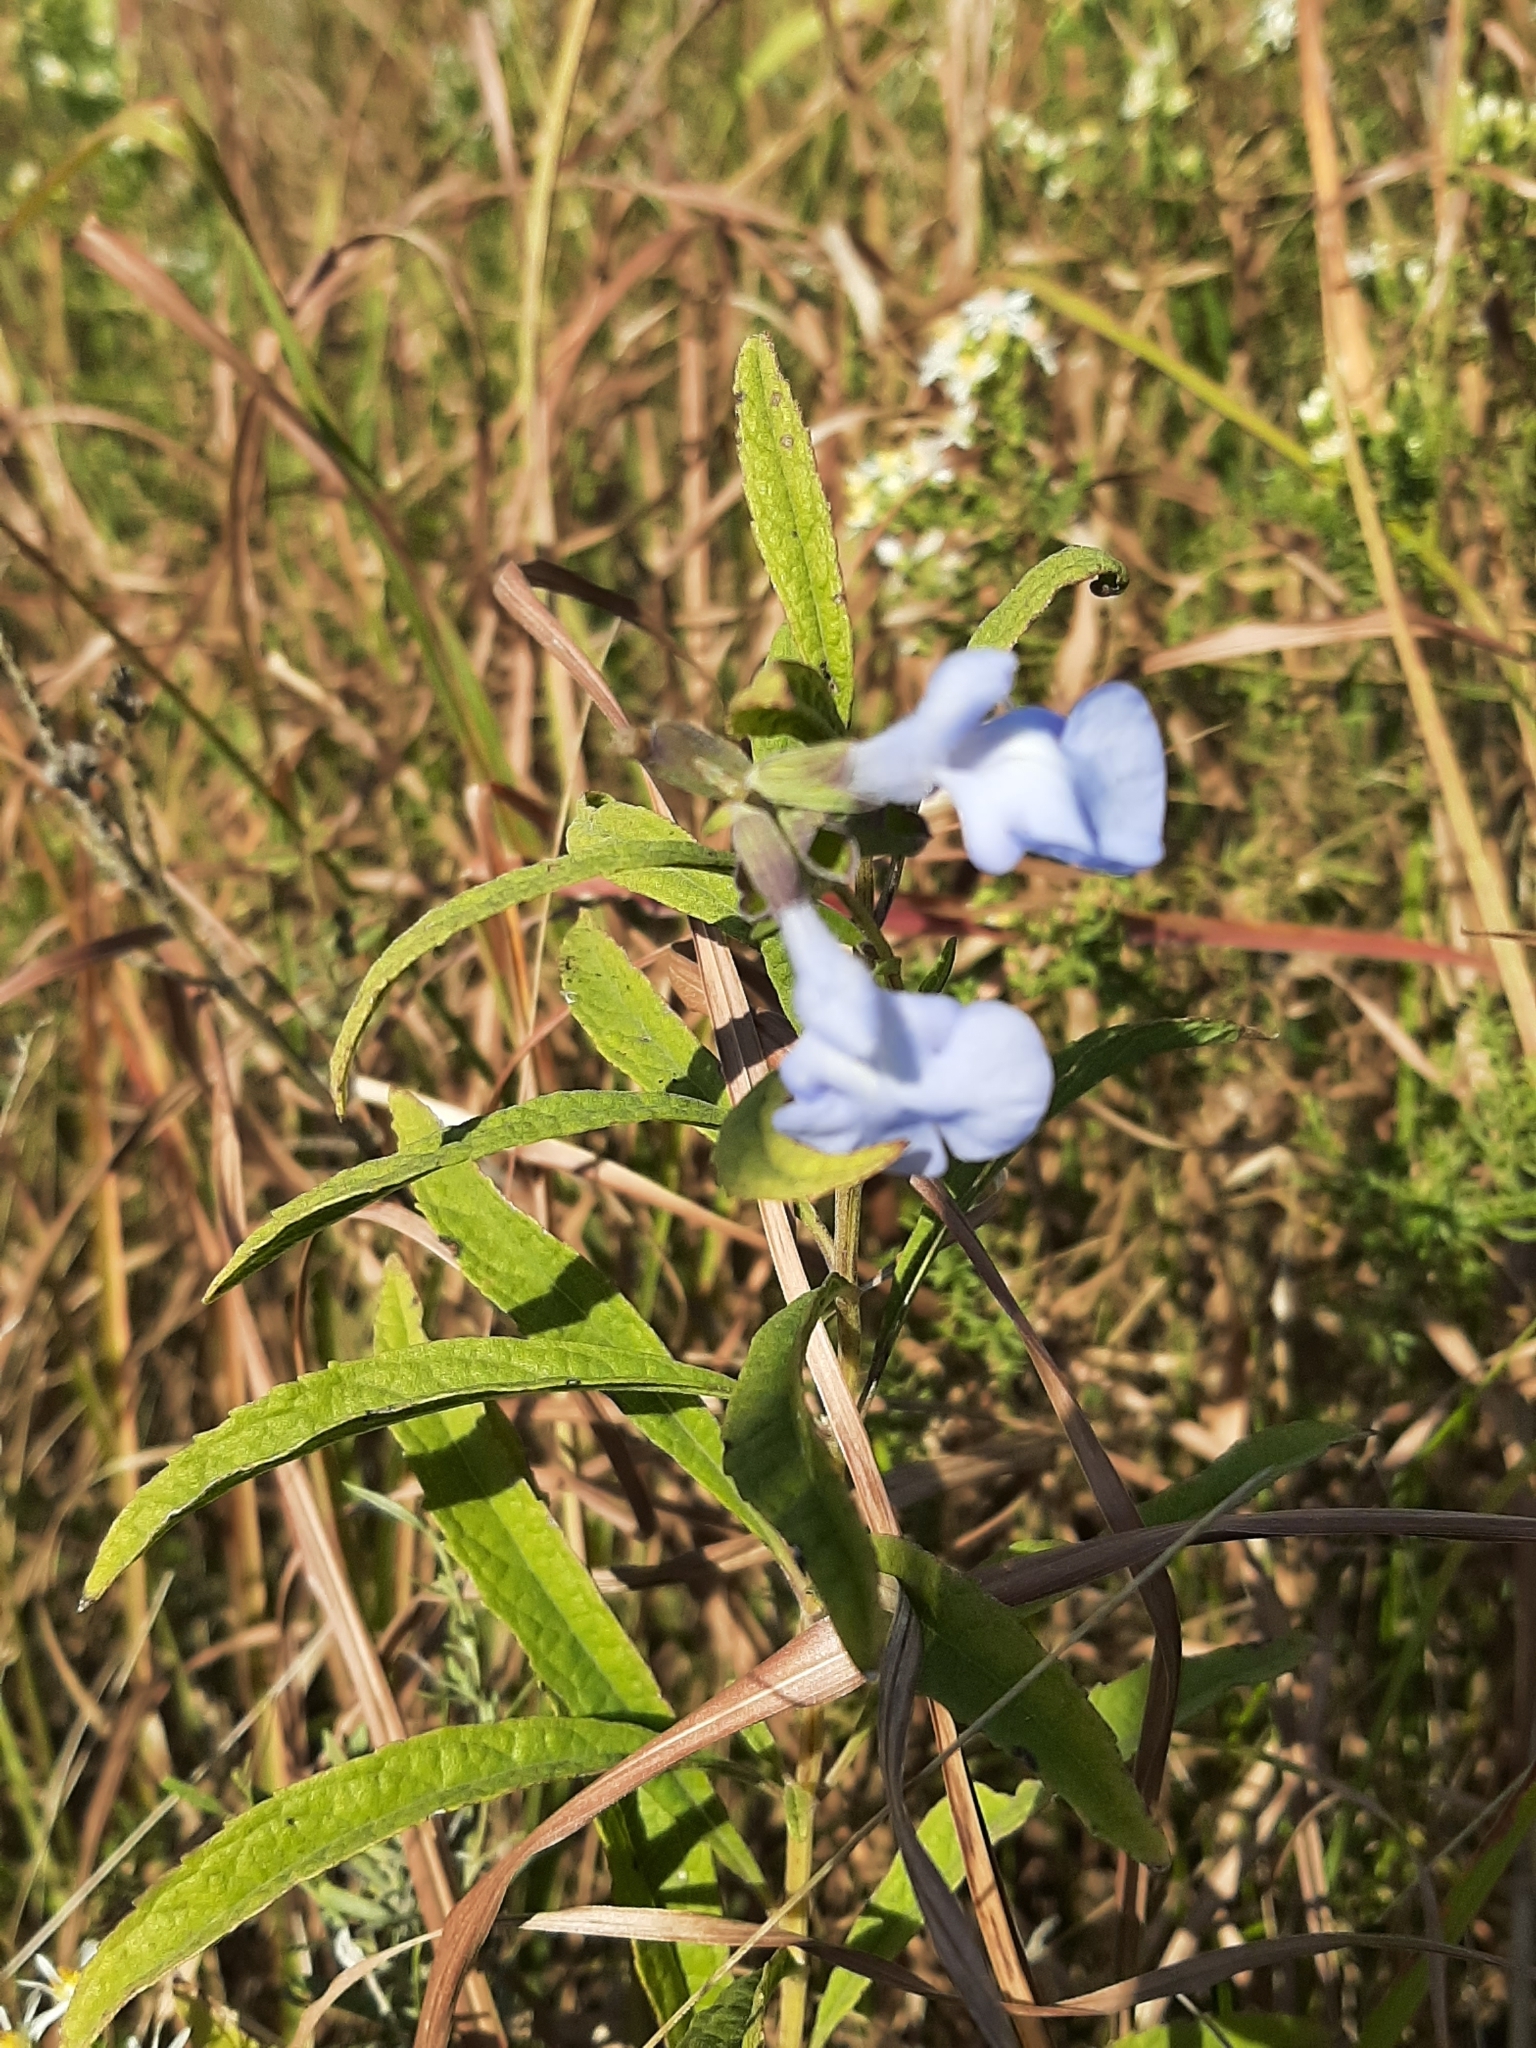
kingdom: Plantae
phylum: Tracheophyta
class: Magnoliopsida
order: Lamiales
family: Lamiaceae
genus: Salvia
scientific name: Salvia azurea
